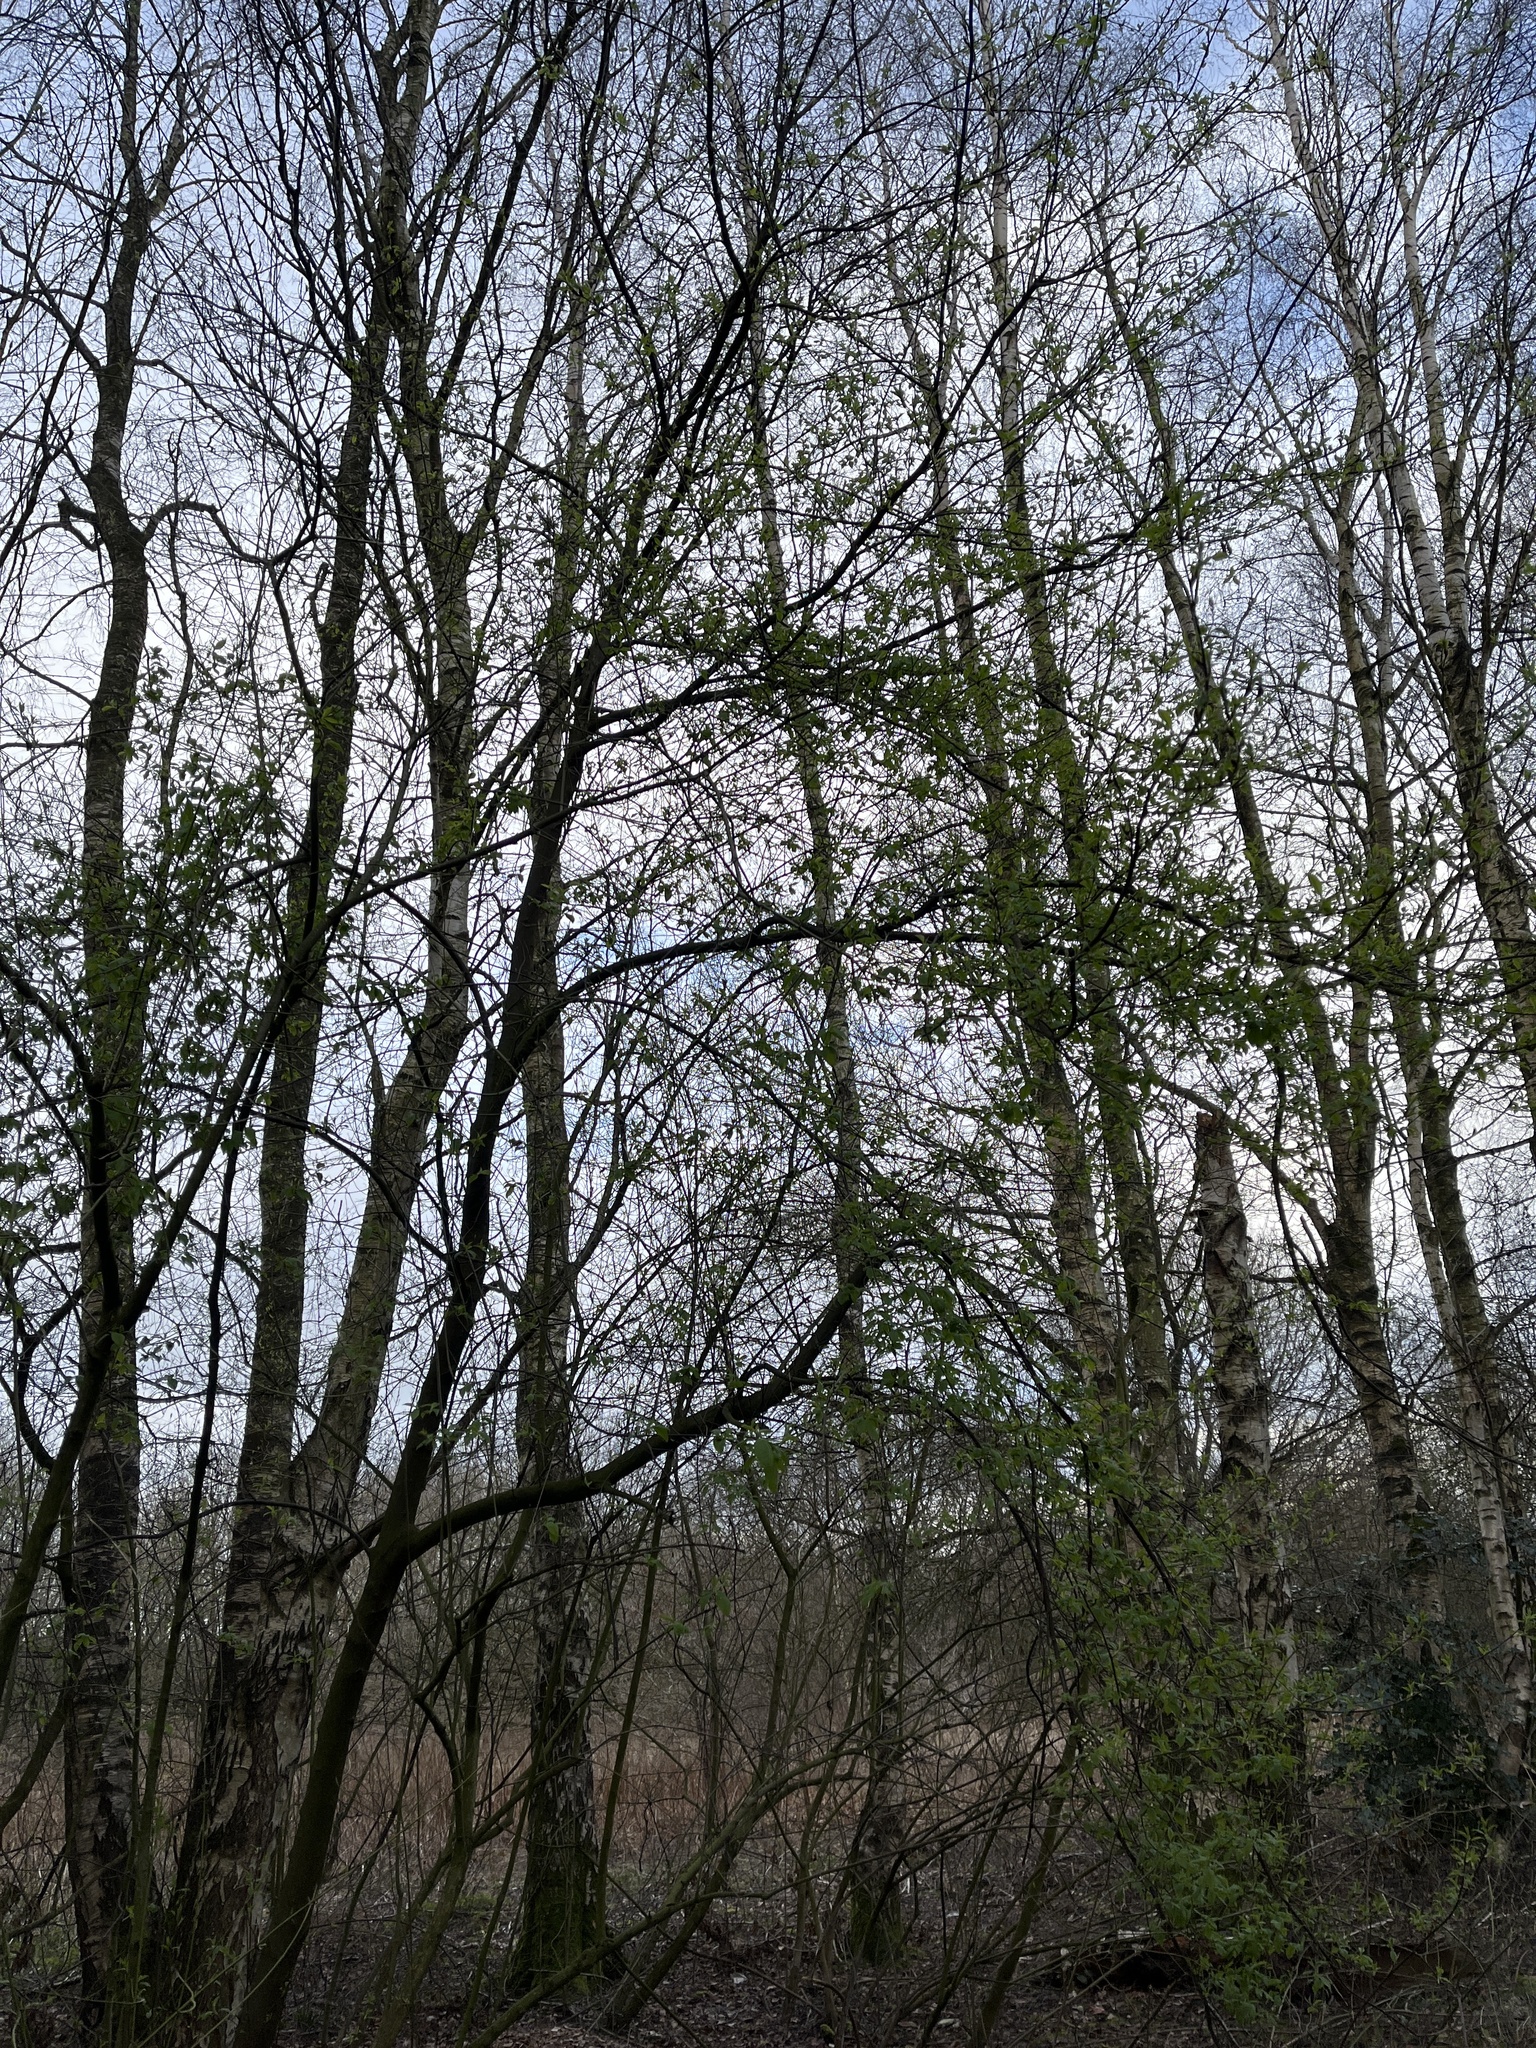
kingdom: Plantae
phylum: Tracheophyta
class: Magnoliopsida
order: Rosales
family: Rosaceae
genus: Prunus
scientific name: Prunus padus
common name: Bird cherry
